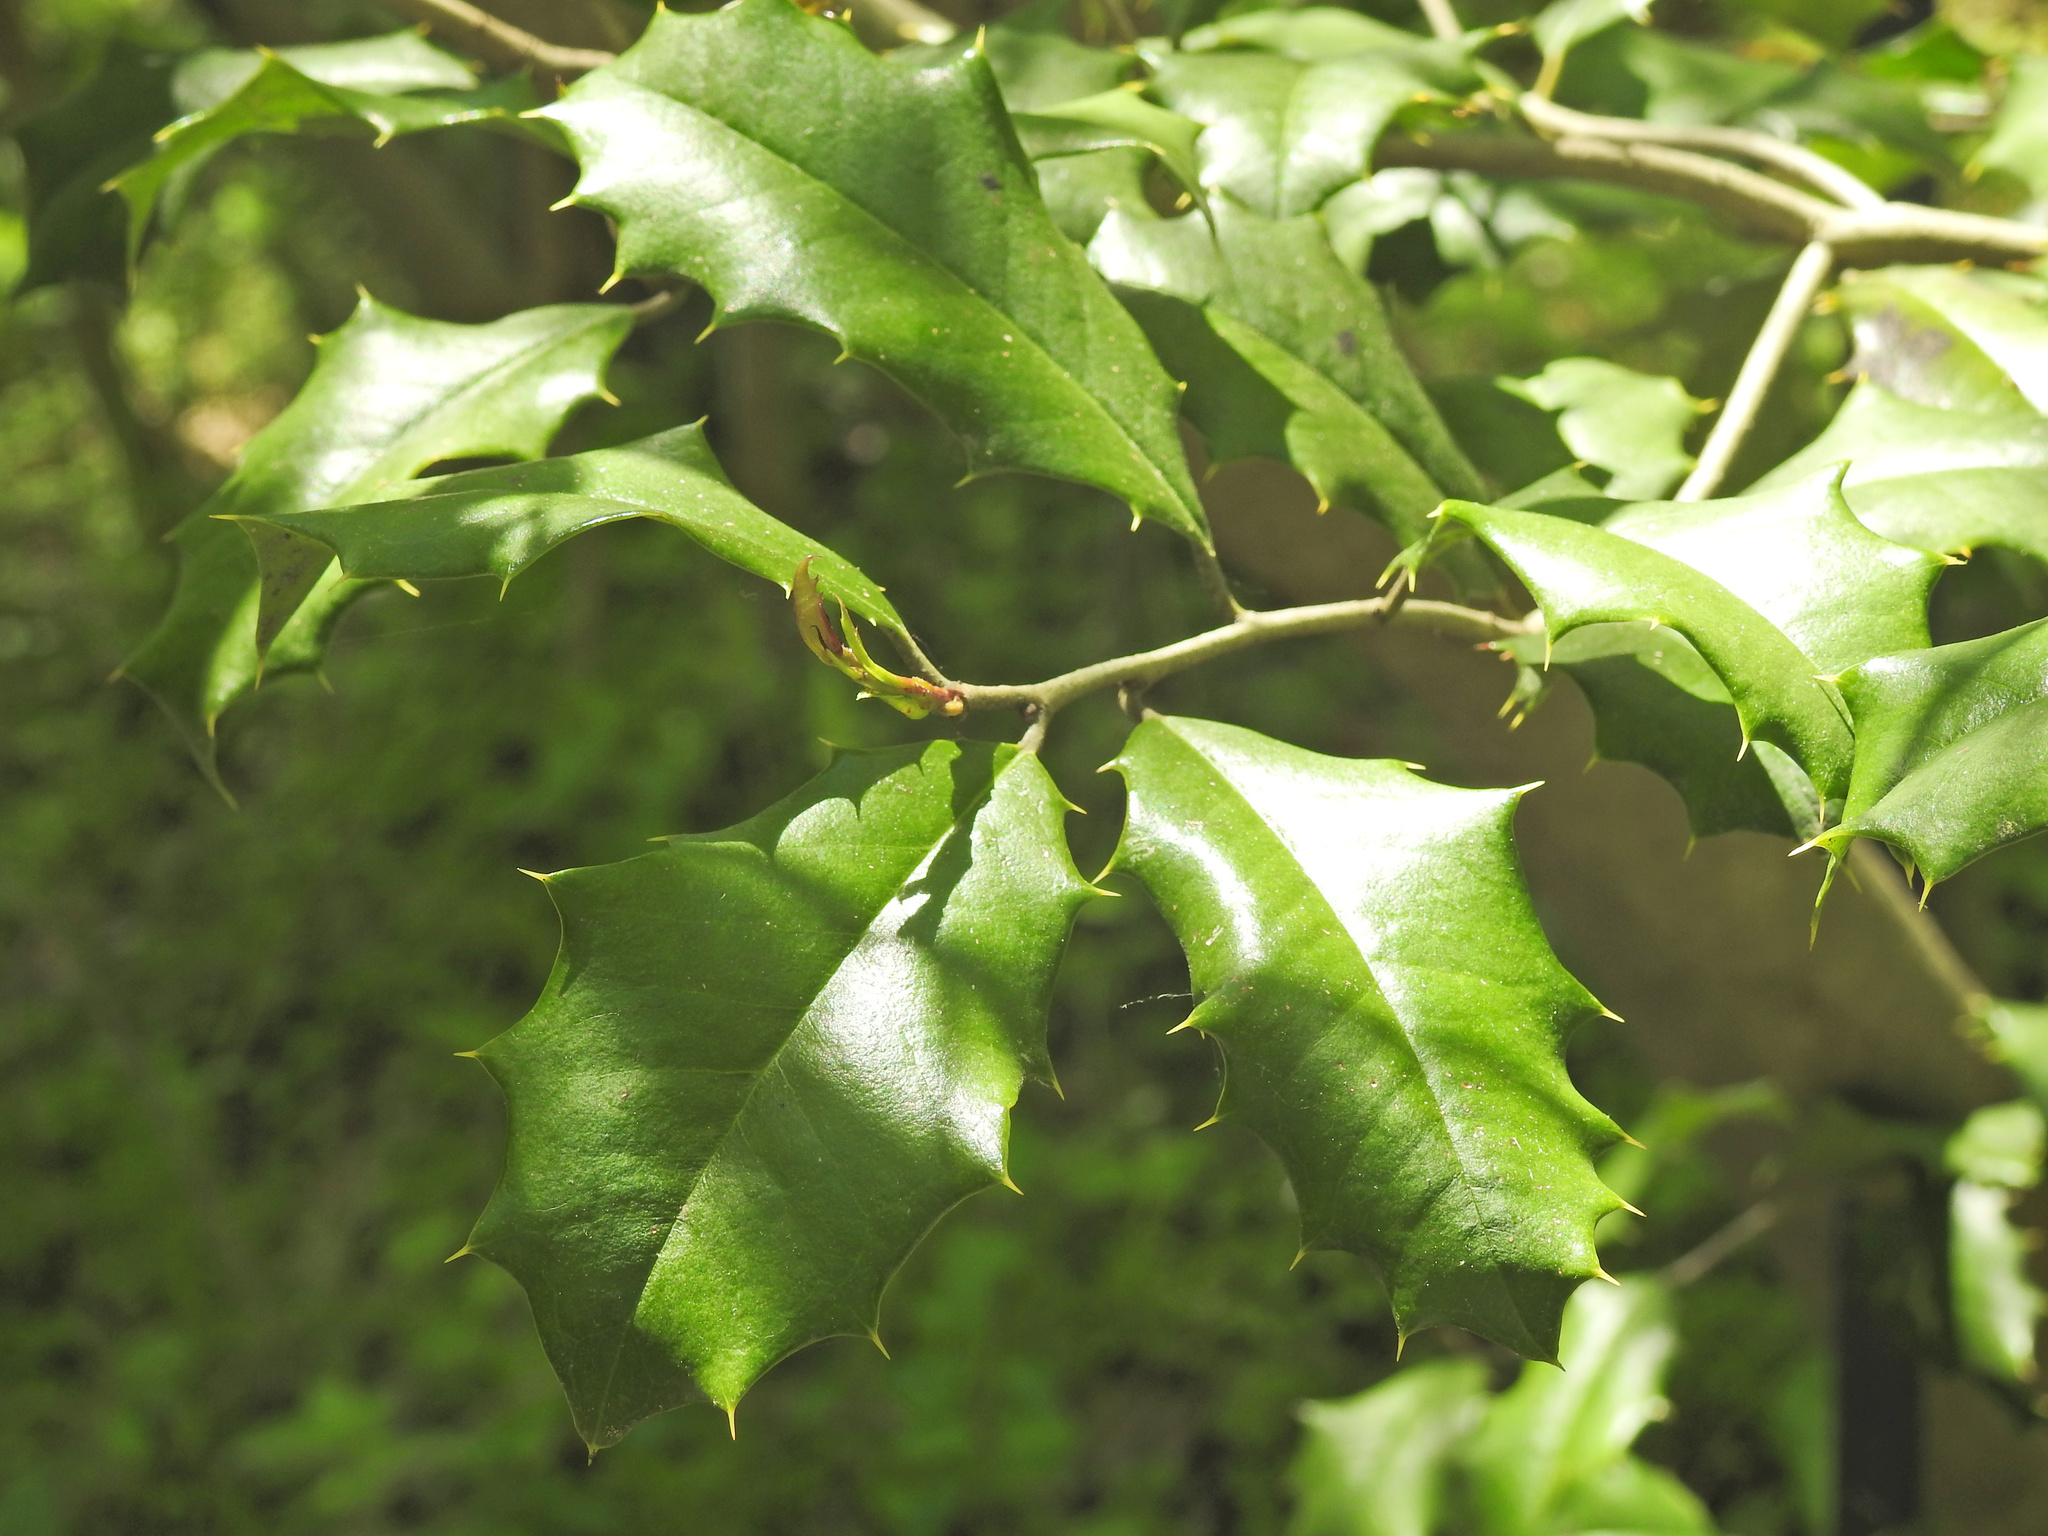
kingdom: Plantae
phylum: Tracheophyta
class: Magnoliopsida
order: Aquifoliales
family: Aquifoliaceae
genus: Ilex
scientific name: Ilex opaca
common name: American holly
